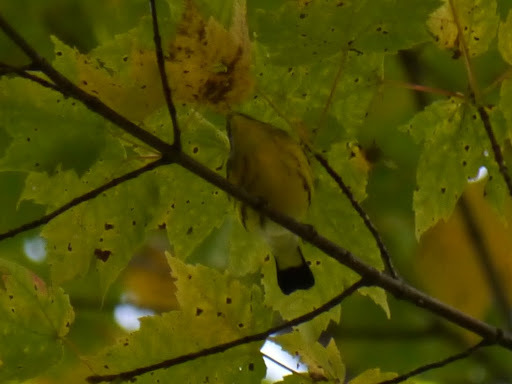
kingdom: Animalia
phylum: Chordata
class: Aves
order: Passeriformes
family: Parulidae
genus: Setophaga
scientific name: Setophaga magnolia
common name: Magnolia warbler
